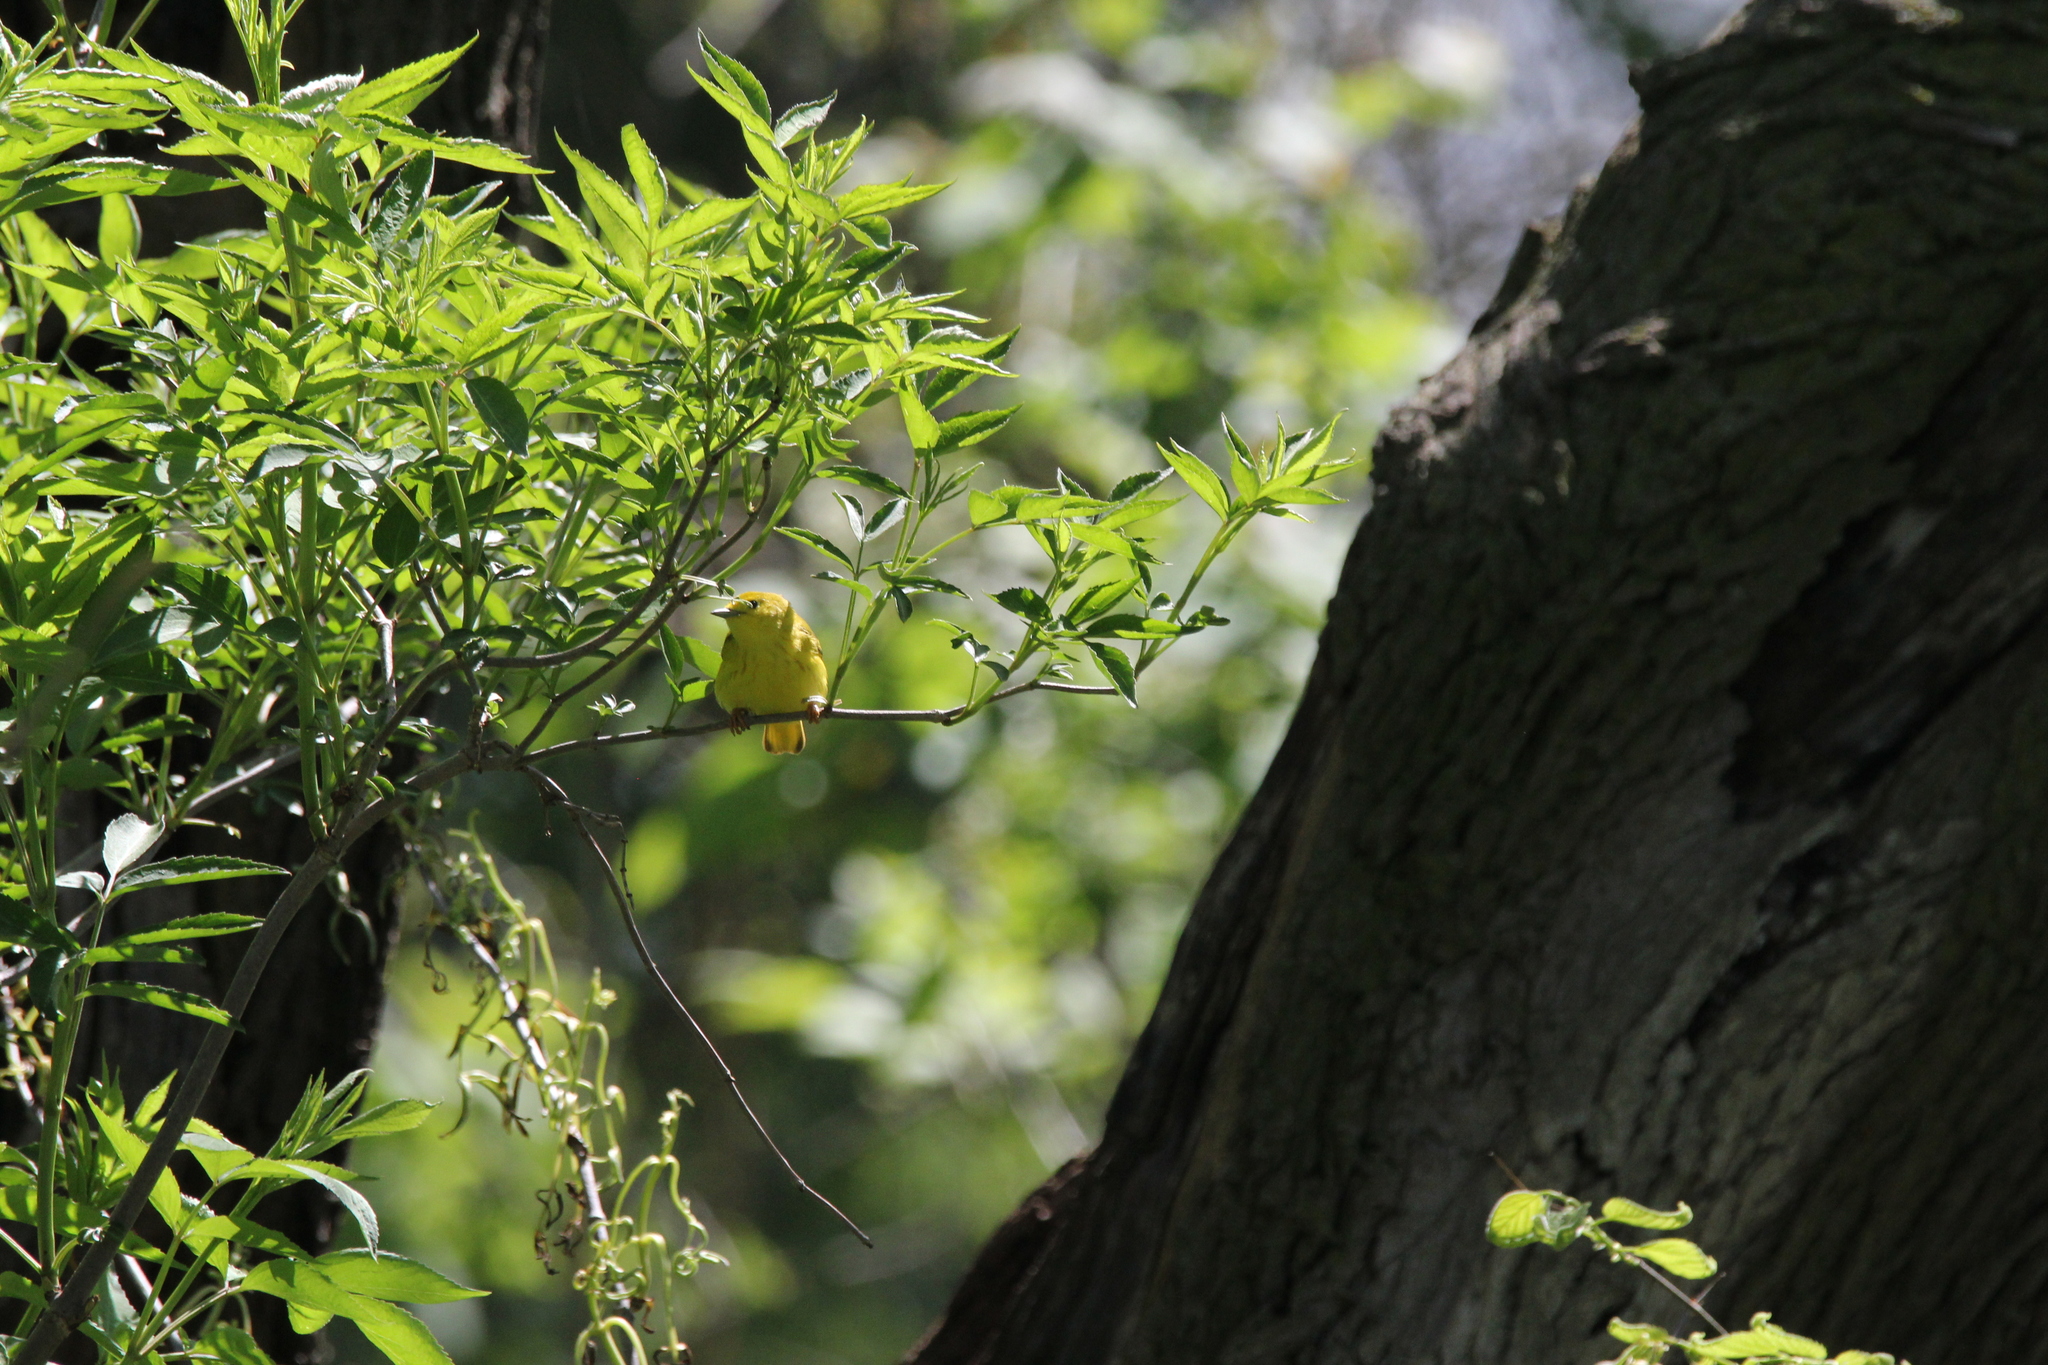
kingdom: Animalia
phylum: Chordata
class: Aves
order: Passeriformes
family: Parulidae
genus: Setophaga
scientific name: Setophaga petechia
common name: Yellow warbler
